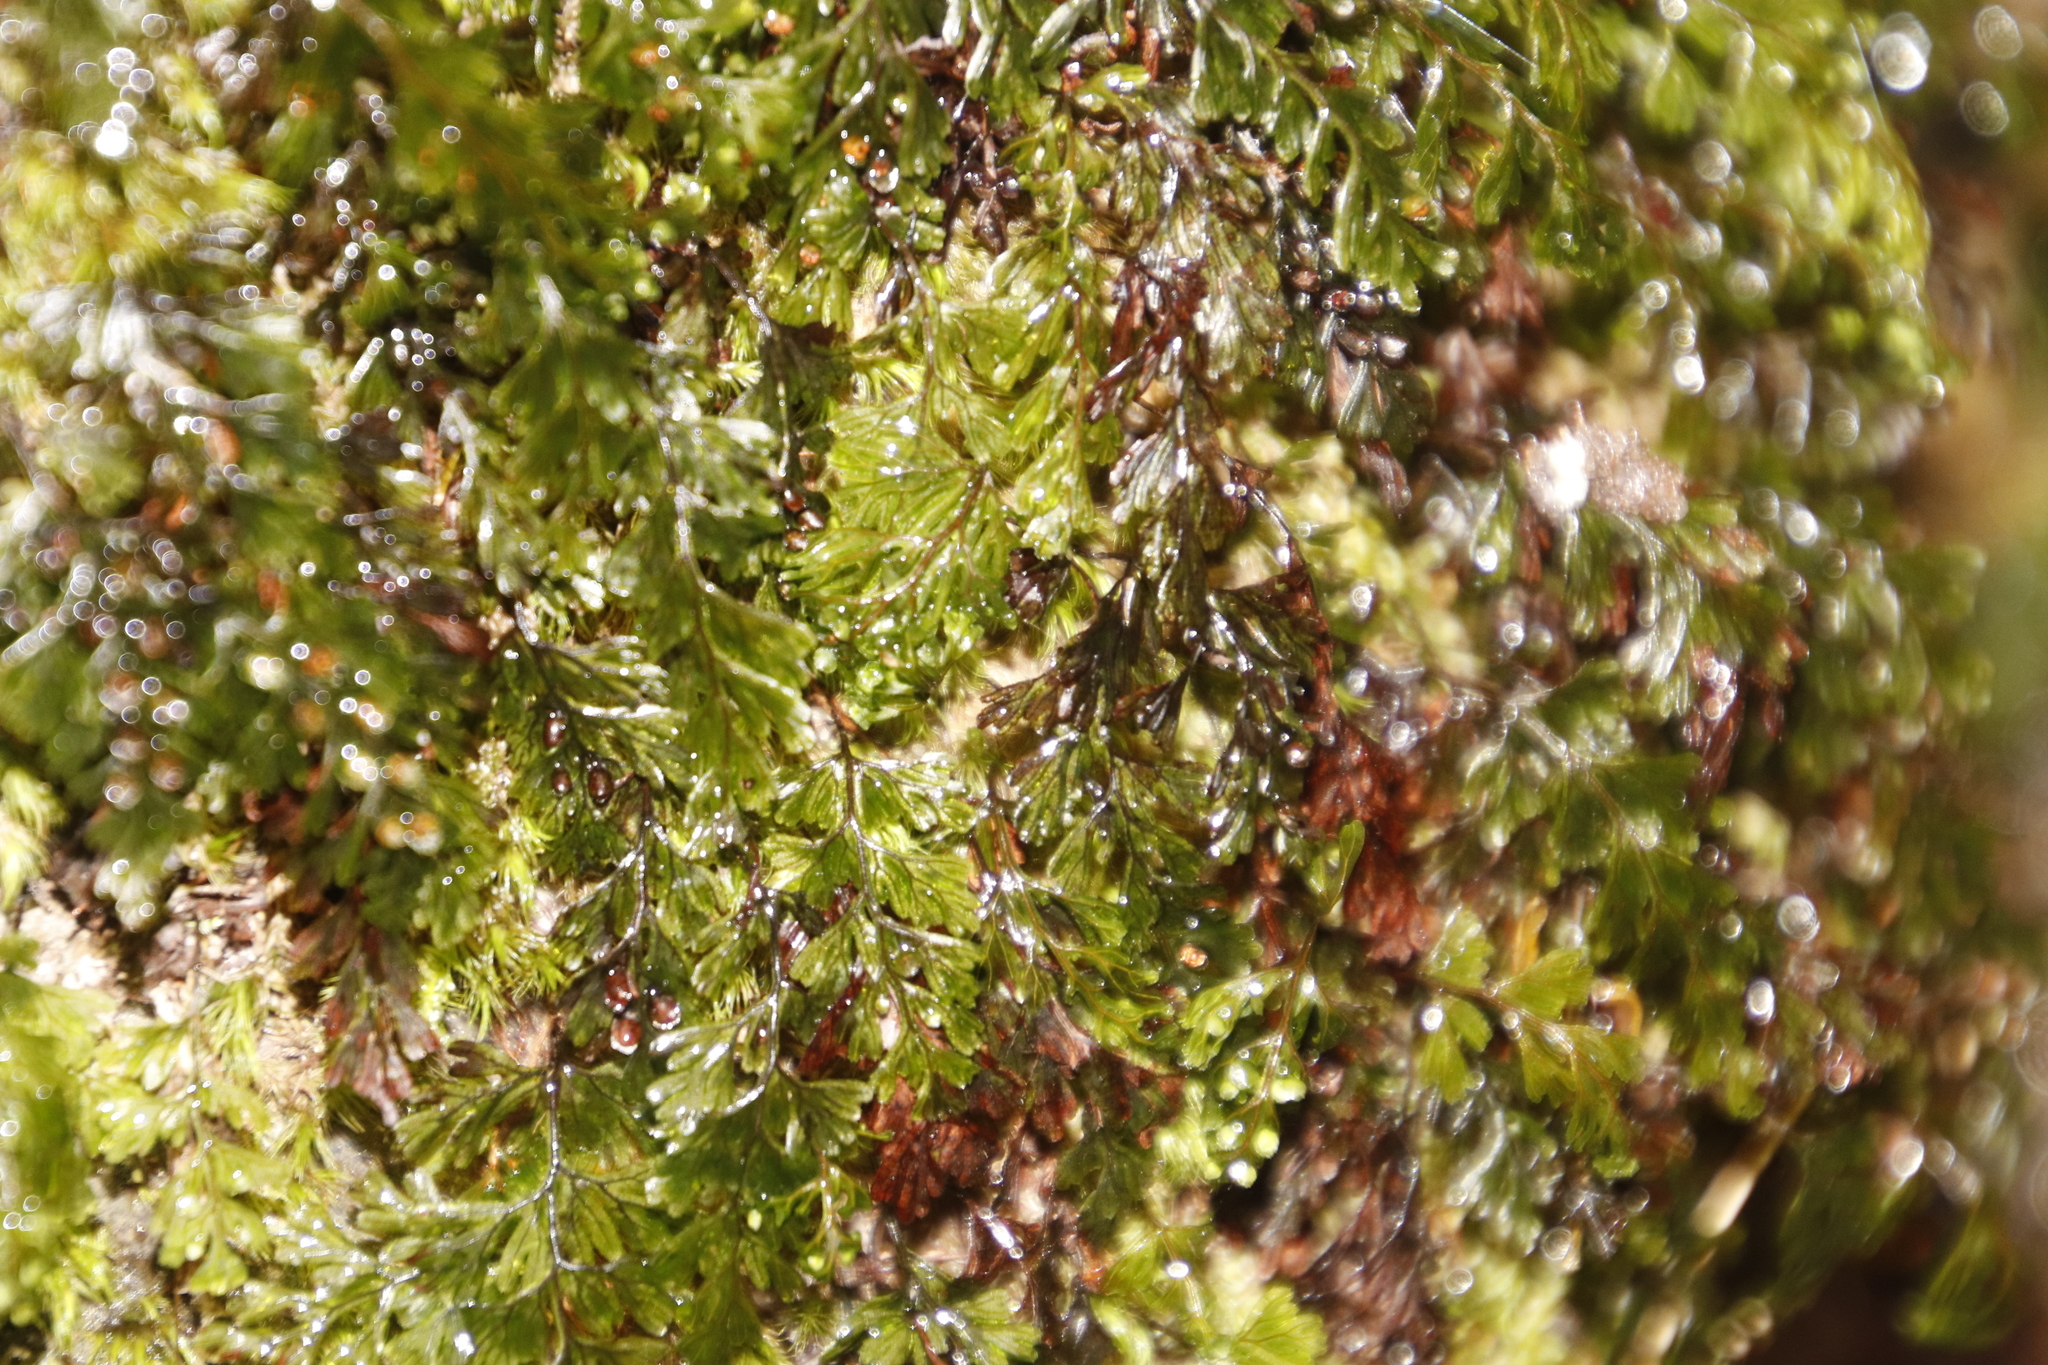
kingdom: Plantae
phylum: Tracheophyta
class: Polypodiopsida
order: Hymenophyllales
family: Hymenophyllaceae
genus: Hymenophyllum
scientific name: Hymenophyllum tunbrigense
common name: Tunbridge filmy fern
